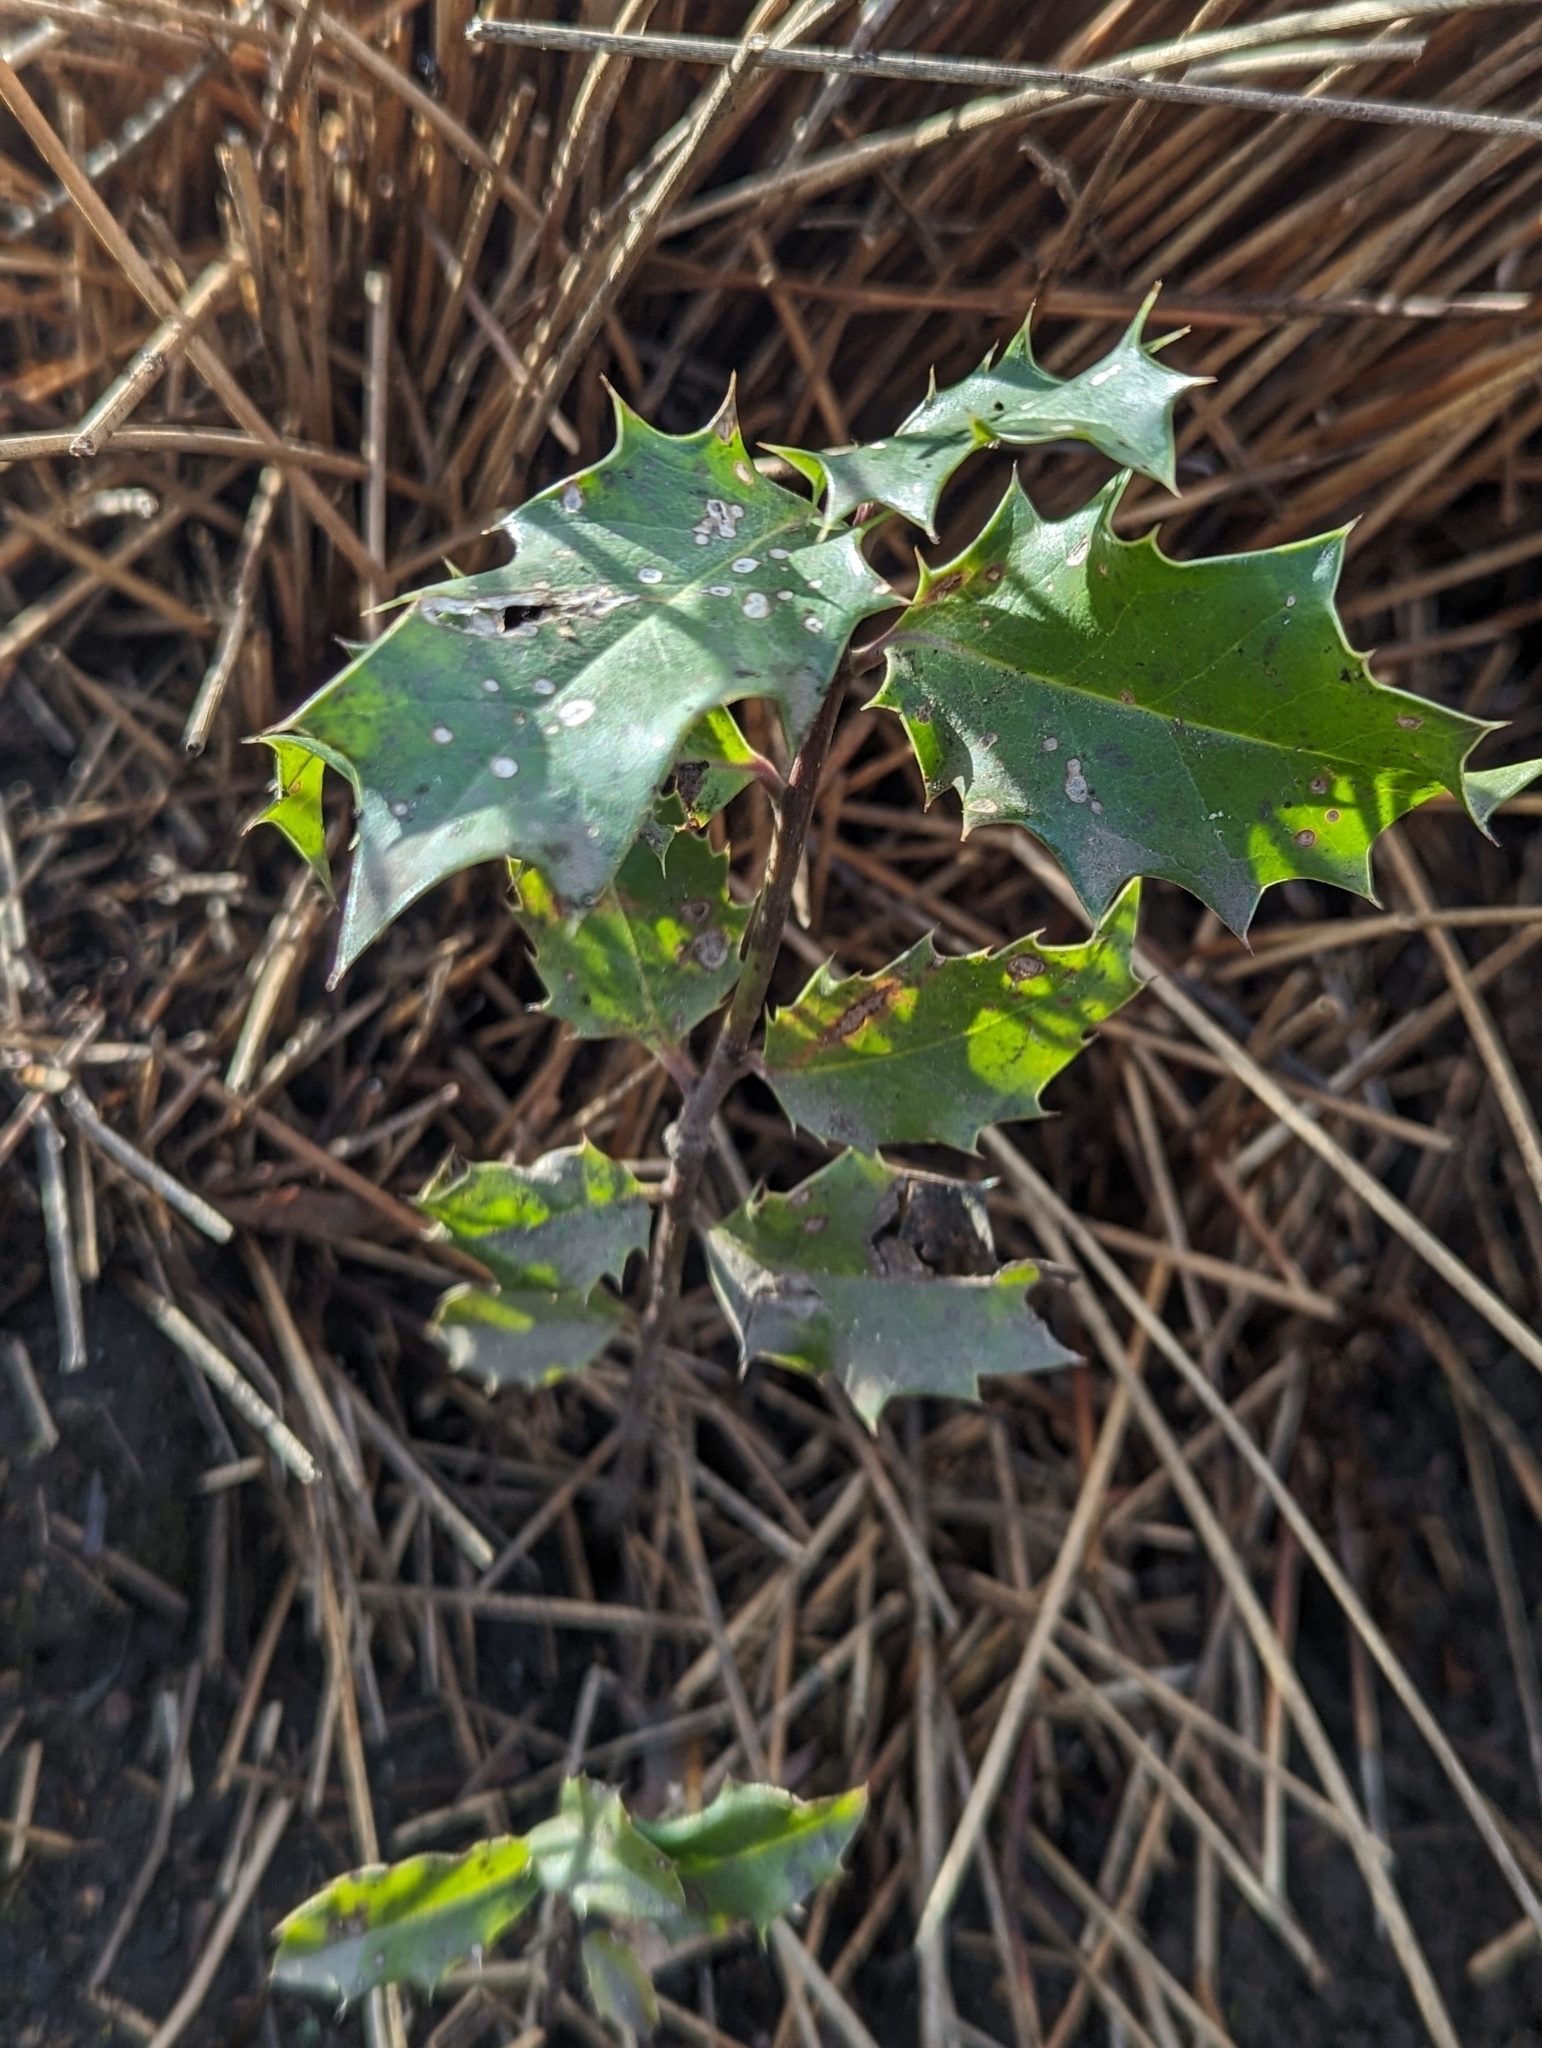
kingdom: Plantae
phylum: Tracheophyta
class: Magnoliopsida
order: Aquifoliales
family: Aquifoliaceae
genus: Ilex
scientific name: Ilex aquifolium
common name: English holly
